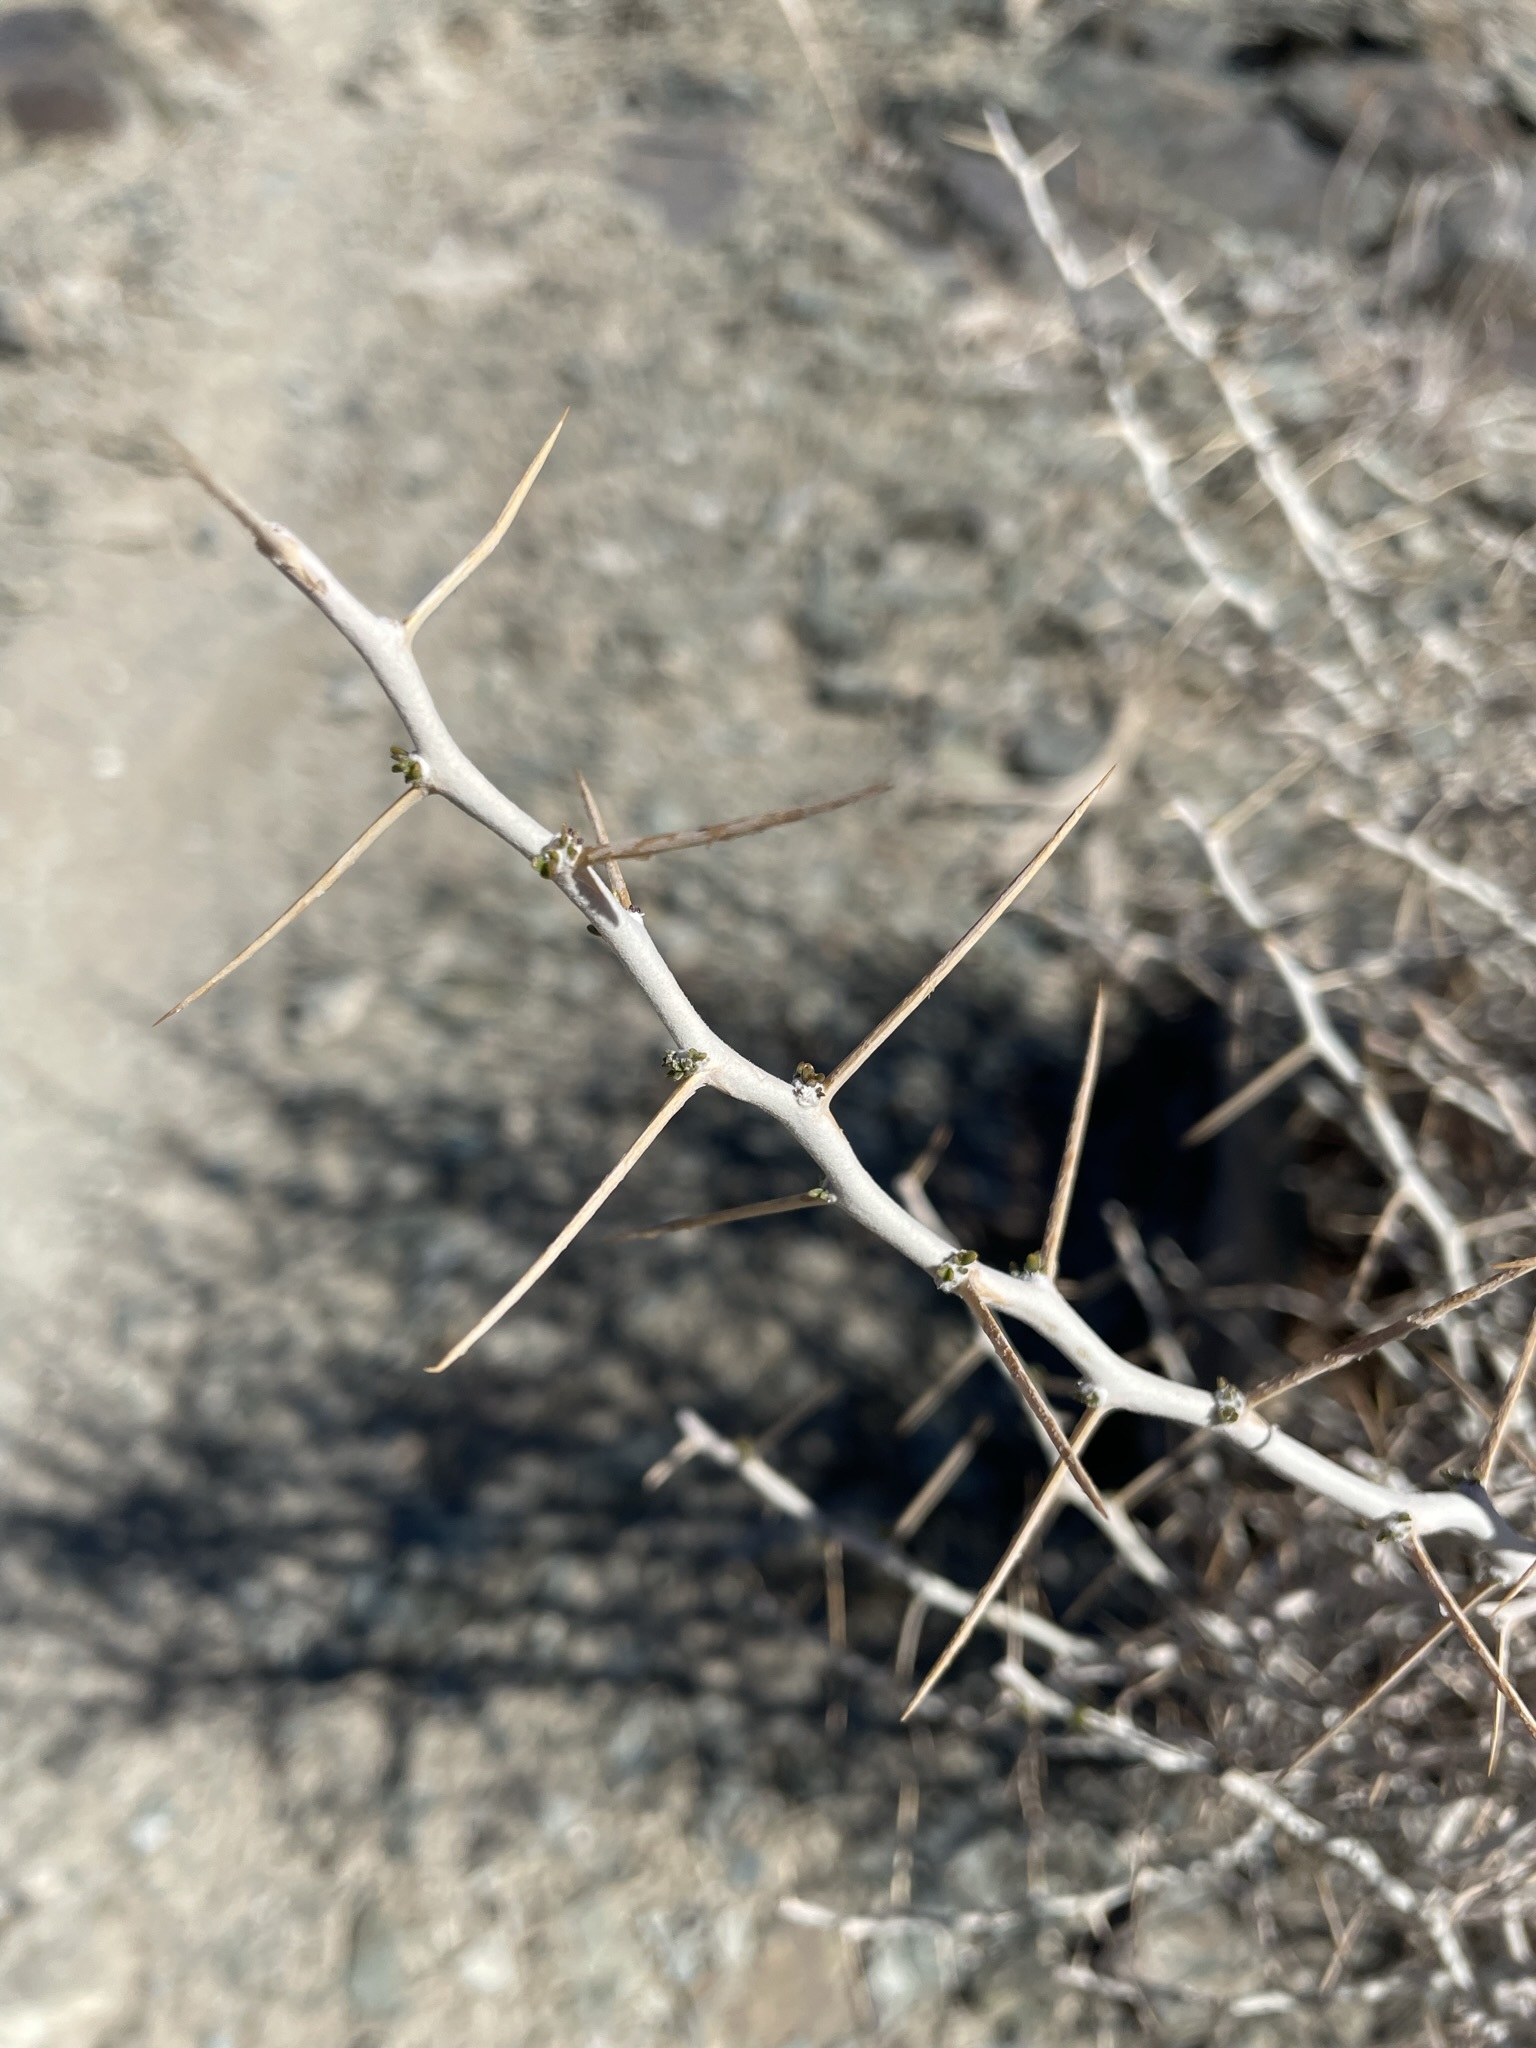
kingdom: Plantae
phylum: Tracheophyta
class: Magnoliopsida
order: Asterales
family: Asteraceae
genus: Tetradymia
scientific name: Tetradymia axillaris
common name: Long-spine horsebrush
